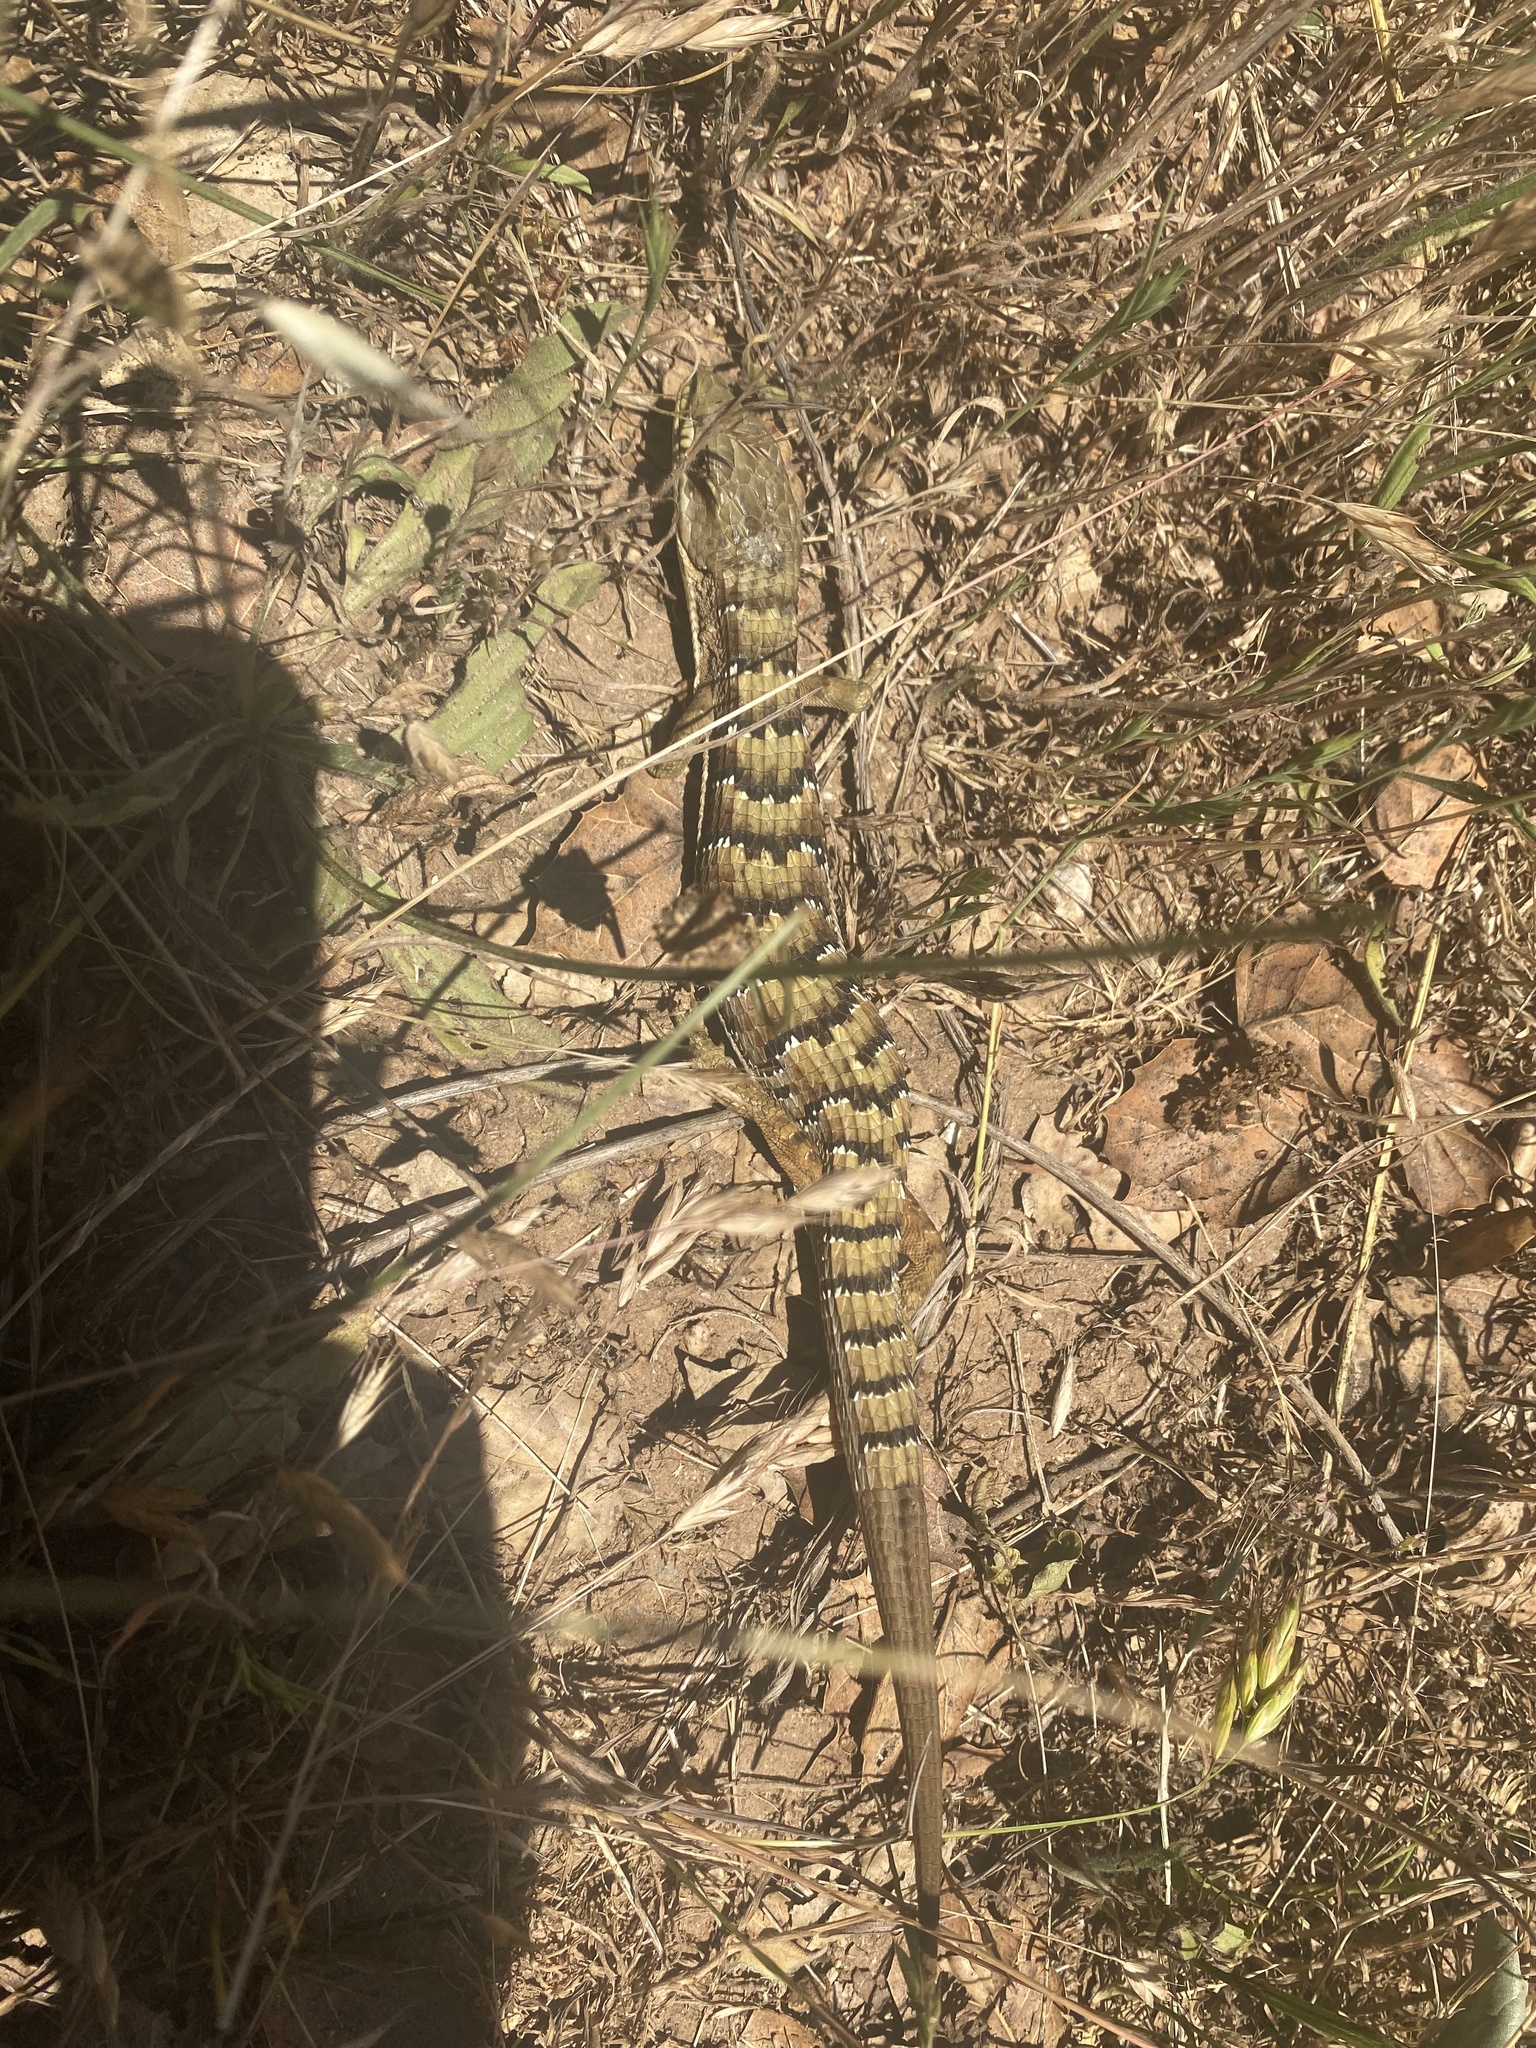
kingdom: Animalia
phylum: Chordata
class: Squamata
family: Anguidae
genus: Elgaria
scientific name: Elgaria multicarinata
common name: Southern alligator lizard
